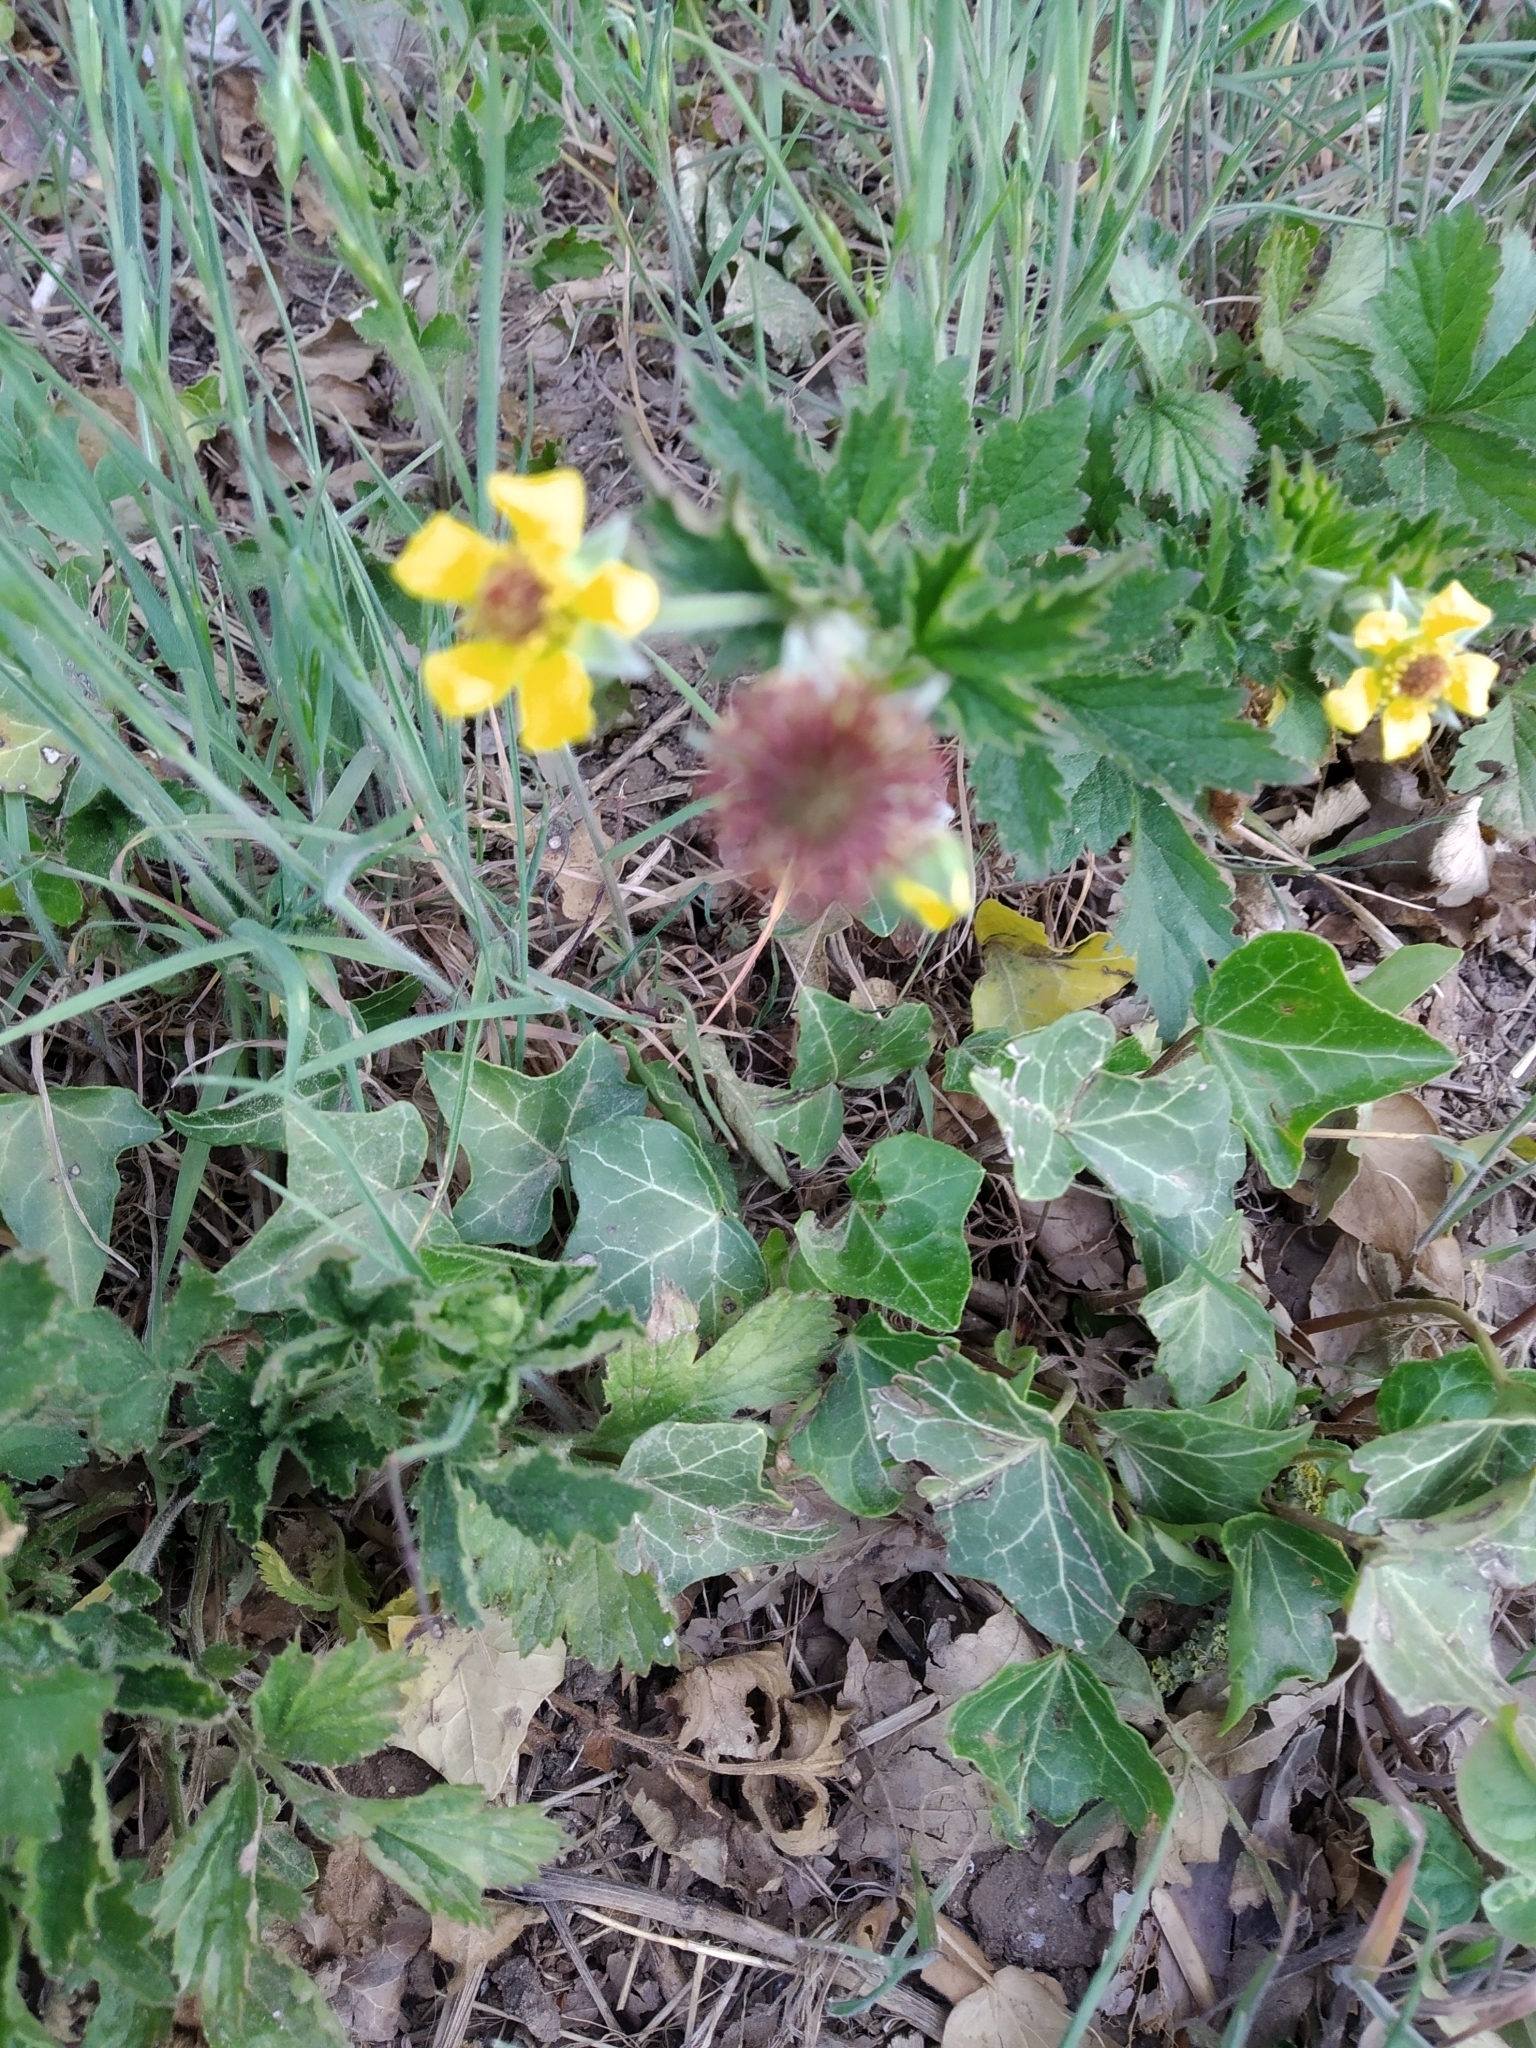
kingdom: Plantae
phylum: Tracheophyta
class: Magnoliopsida
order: Rosales
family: Rosaceae
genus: Geum
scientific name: Geum urbanum
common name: Wood avens
